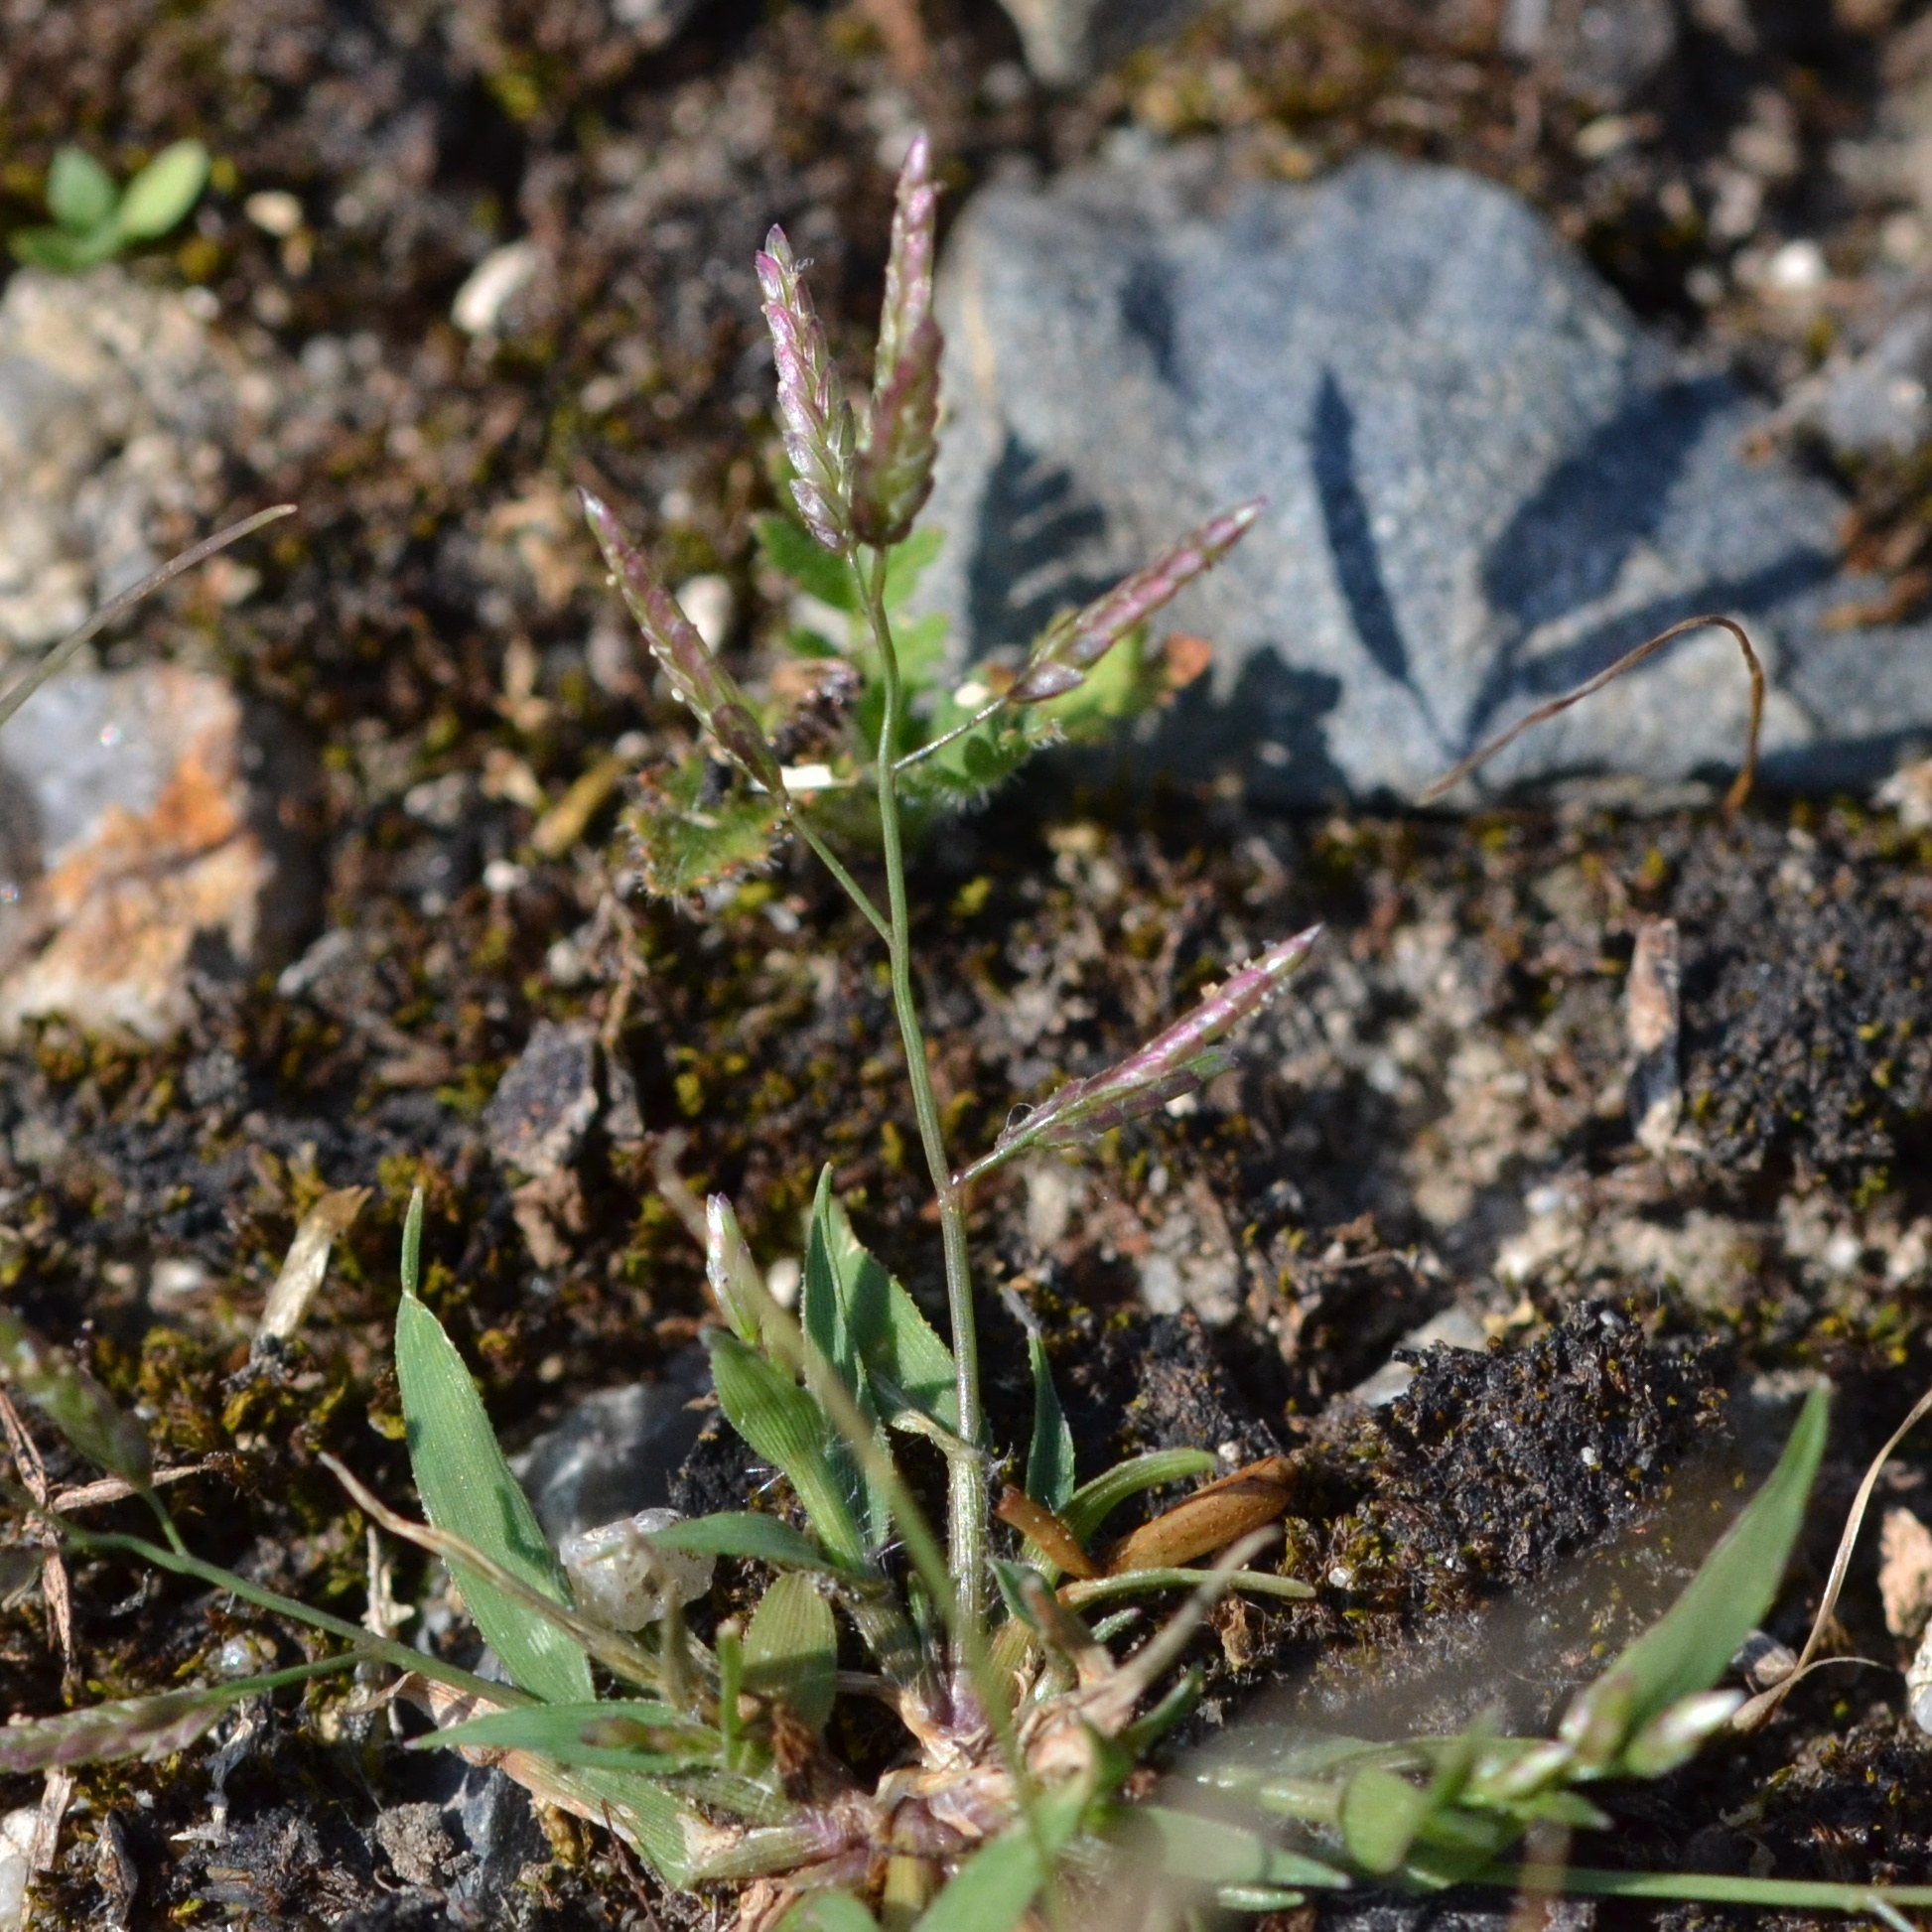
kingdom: Plantae
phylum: Tracheophyta
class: Liliopsida
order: Poales
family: Poaceae
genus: Eragrostis
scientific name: Eragrostis minor
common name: Small love-grass
